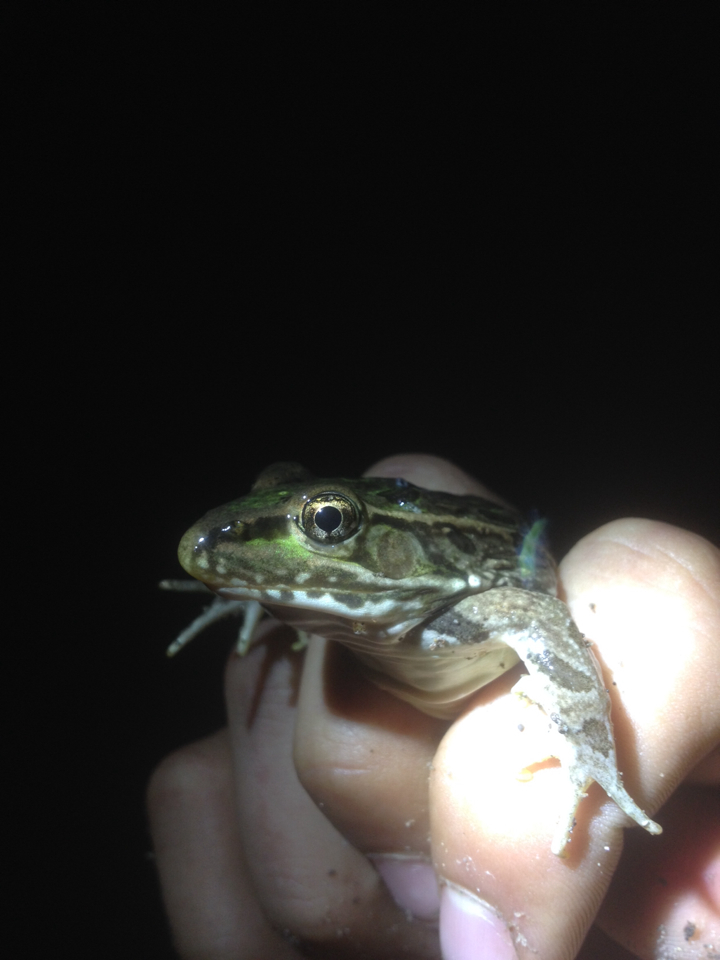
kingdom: Animalia
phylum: Chordata
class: Amphibia
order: Anura
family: Ranidae
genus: Lithobates
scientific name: Lithobates berlandieri
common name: Rio grande leopard frog
